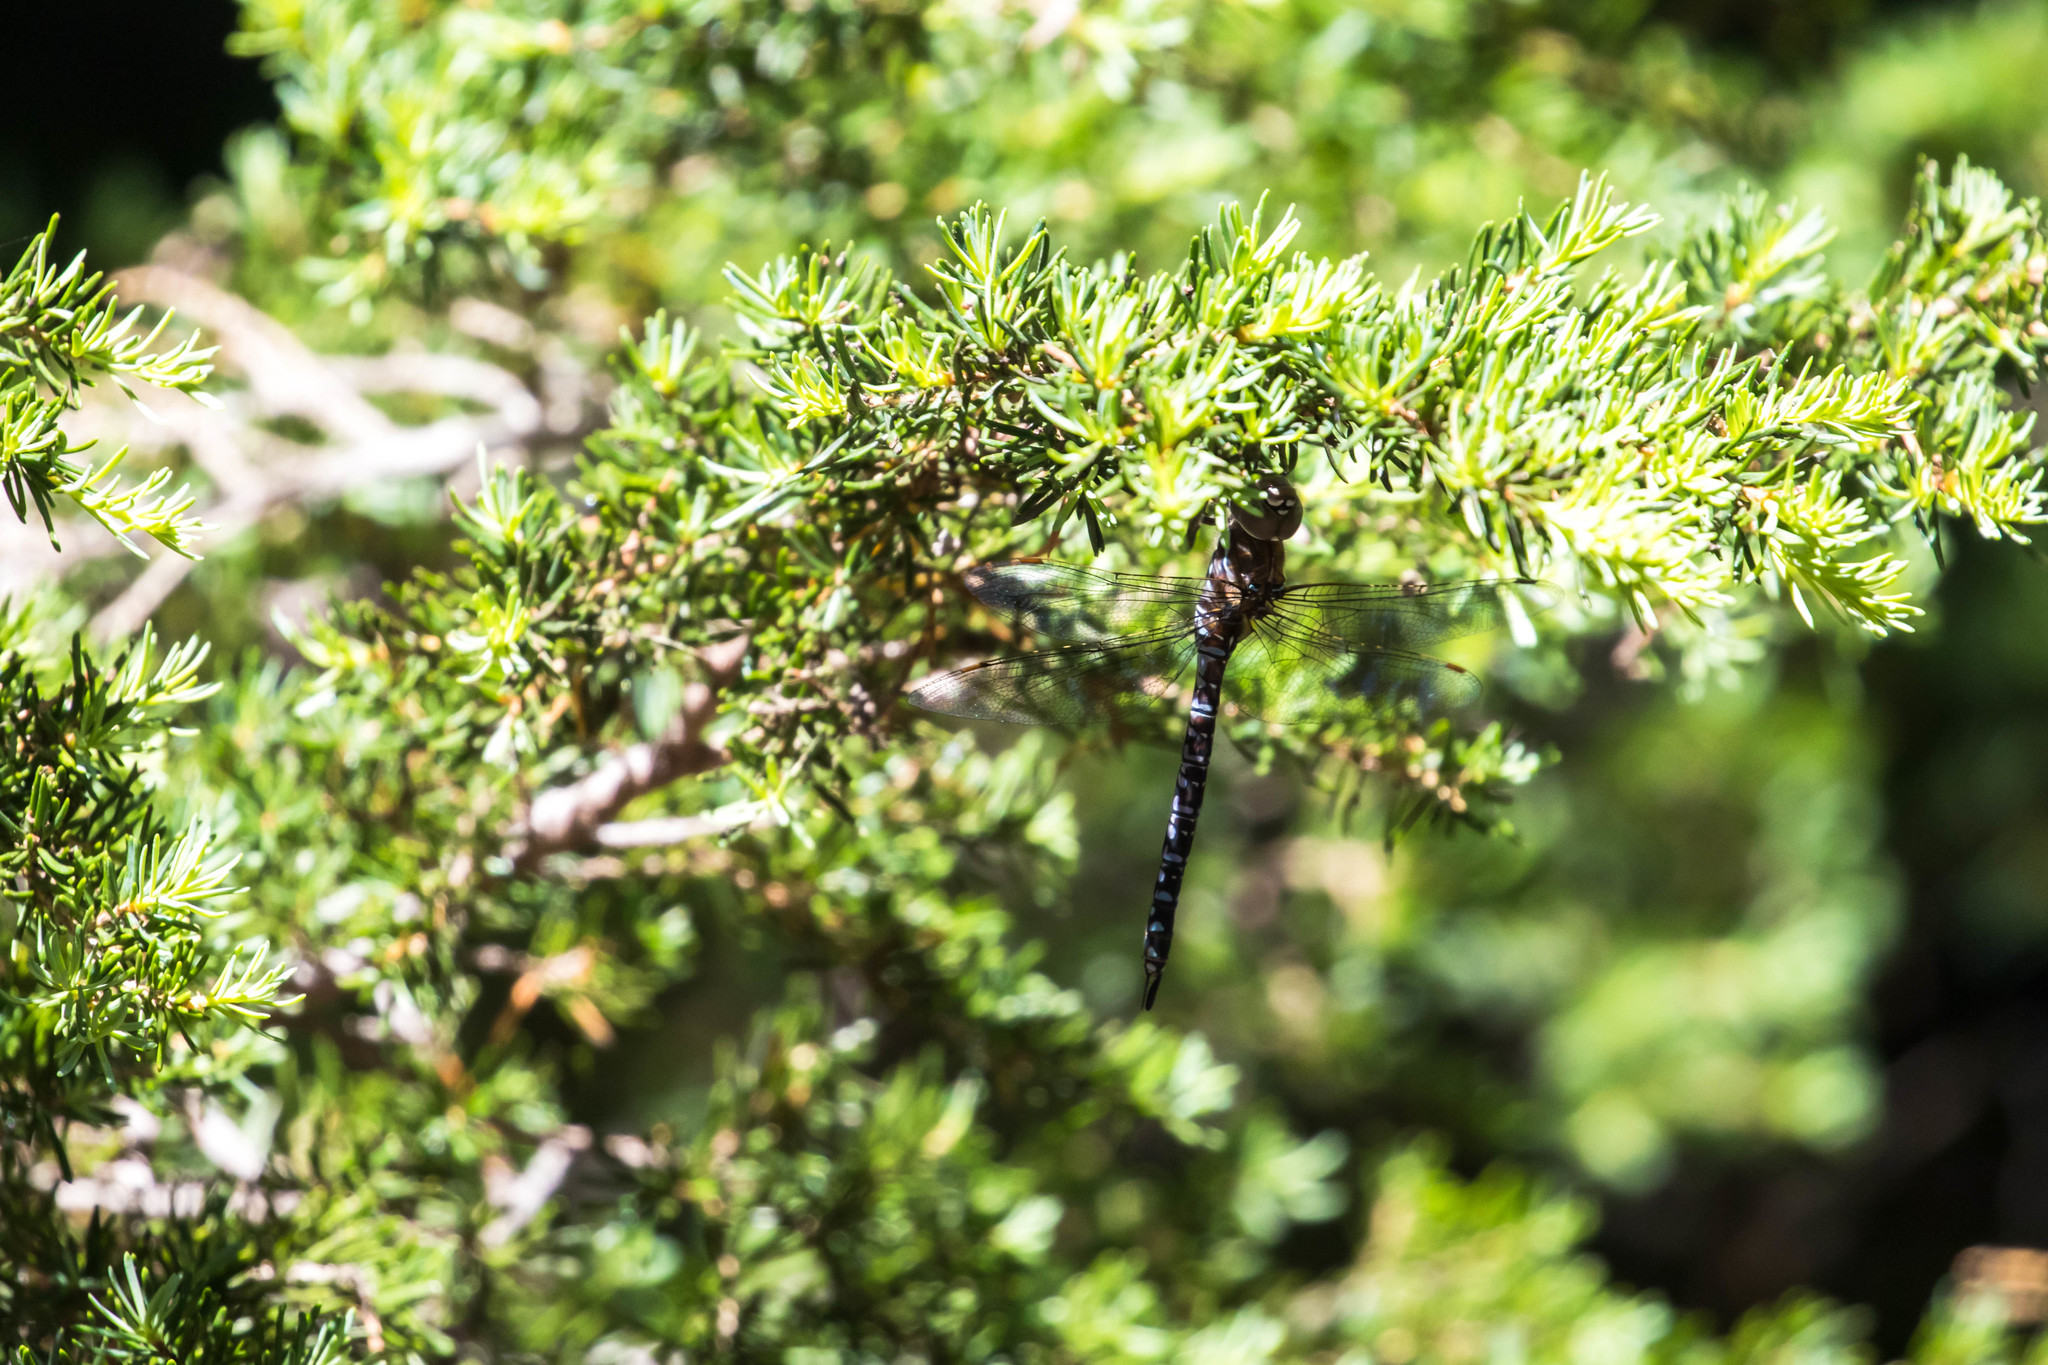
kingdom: Animalia
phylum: Arthropoda
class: Insecta
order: Odonata
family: Aeshnidae
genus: Aeshna
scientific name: Aeshna interrupta
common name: Variable darner
